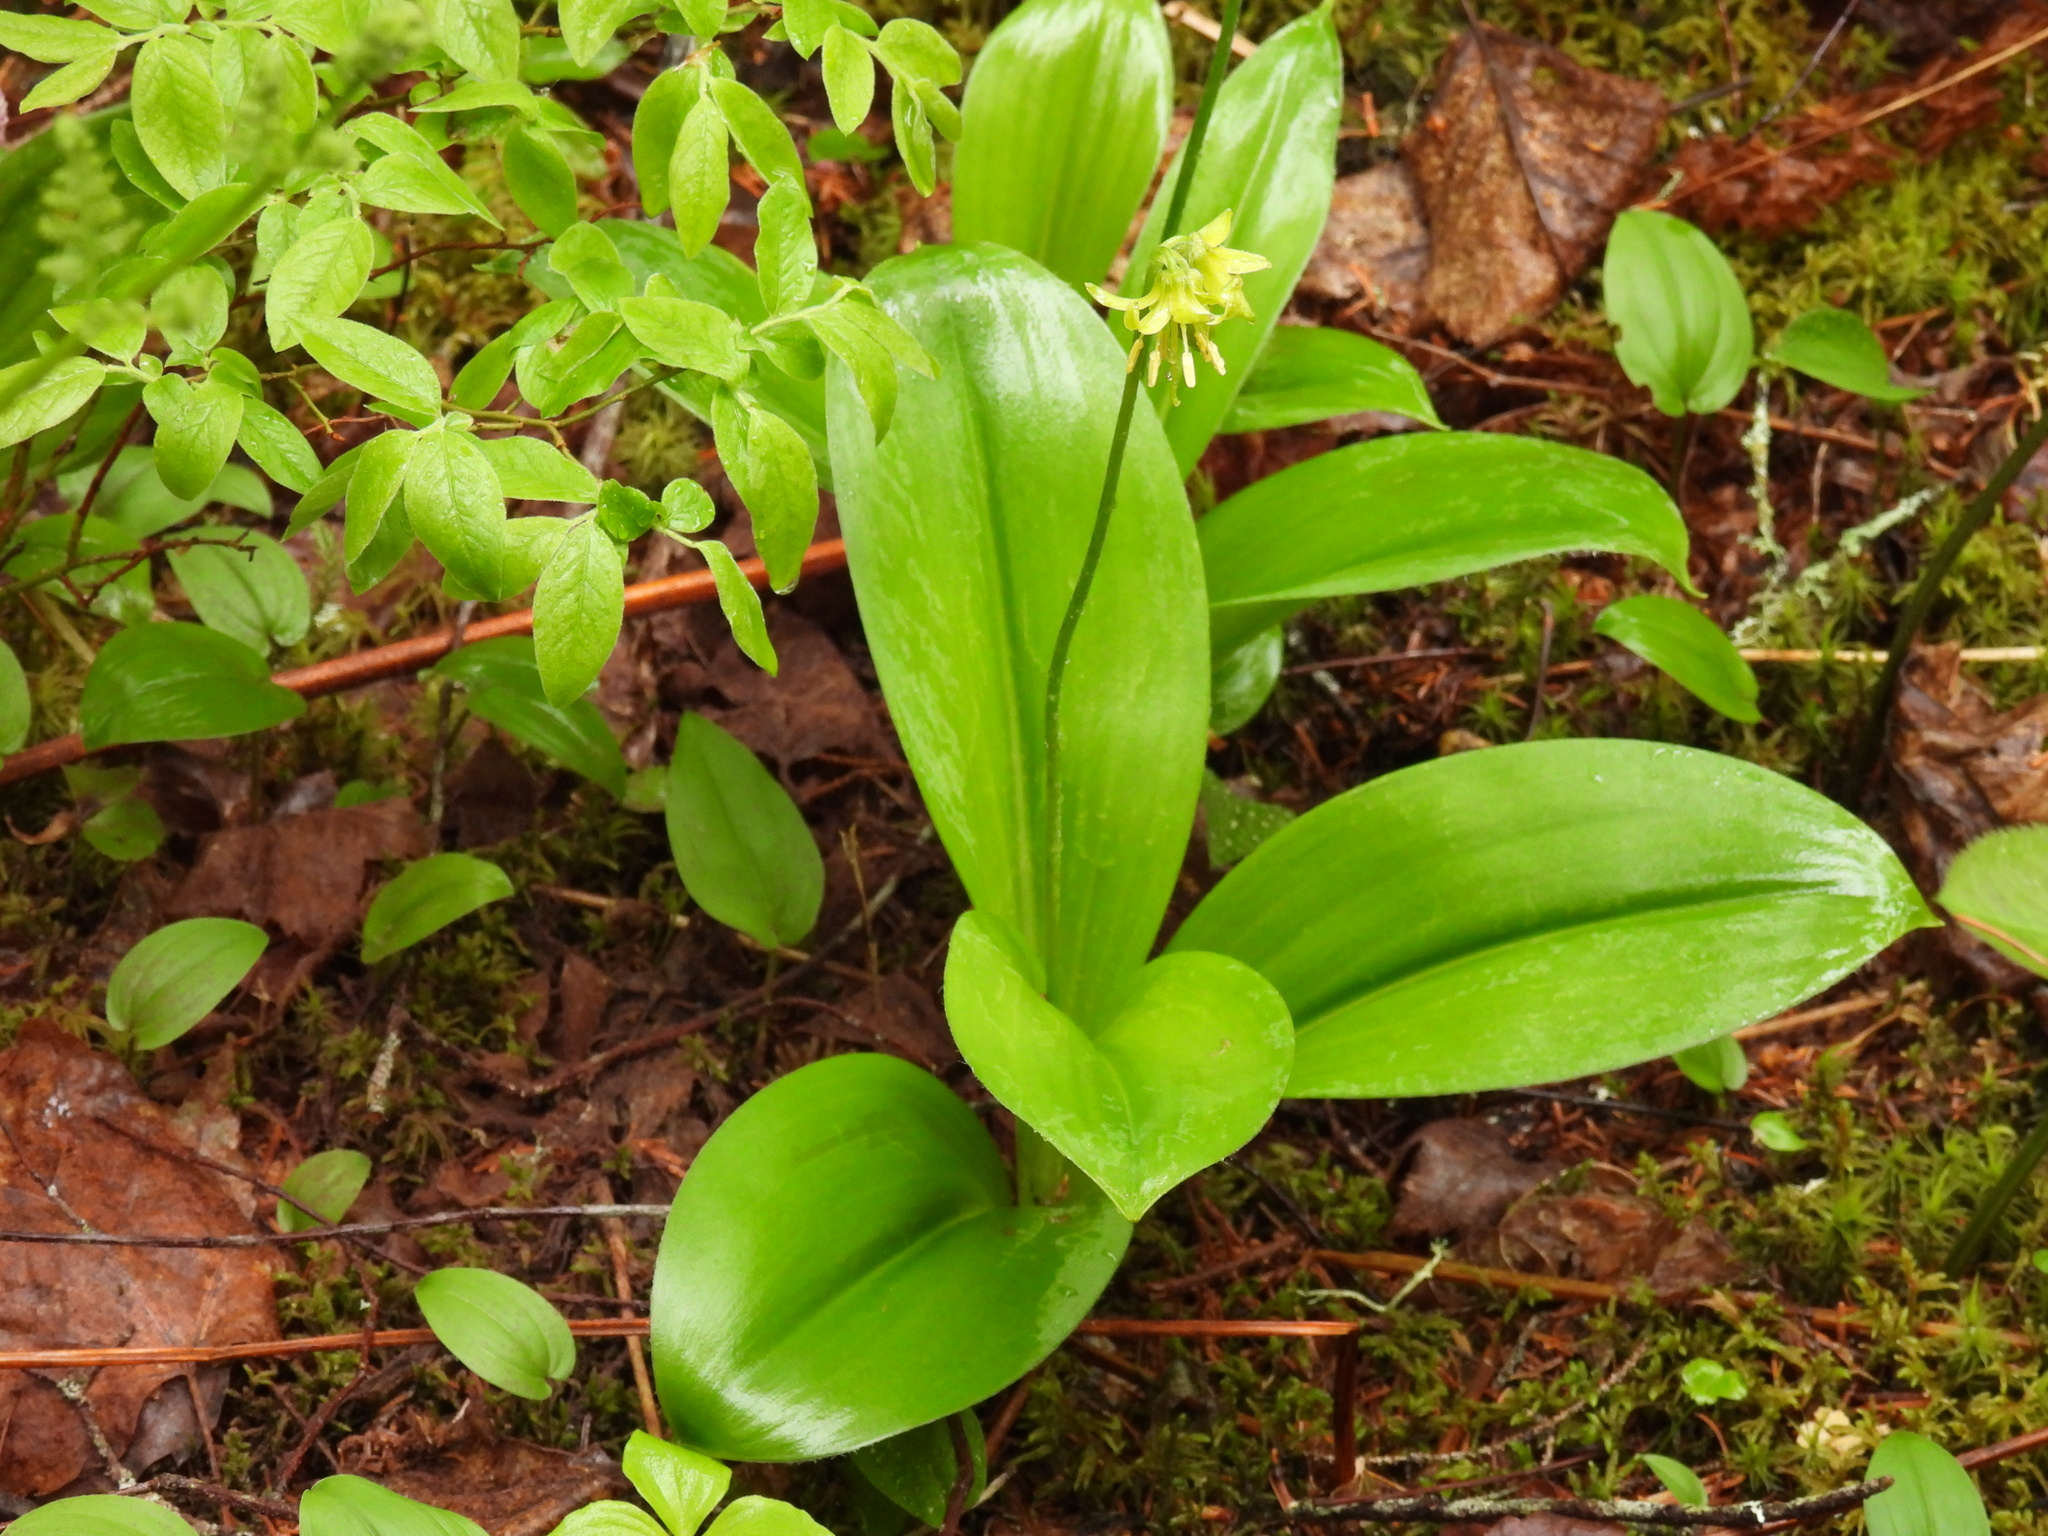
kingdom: Plantae
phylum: Tracheophyta
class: Liliopsida
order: Liliales
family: Liliaceae
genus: Clintonia
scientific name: Clintonia borealis
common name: Yellow clintonia
